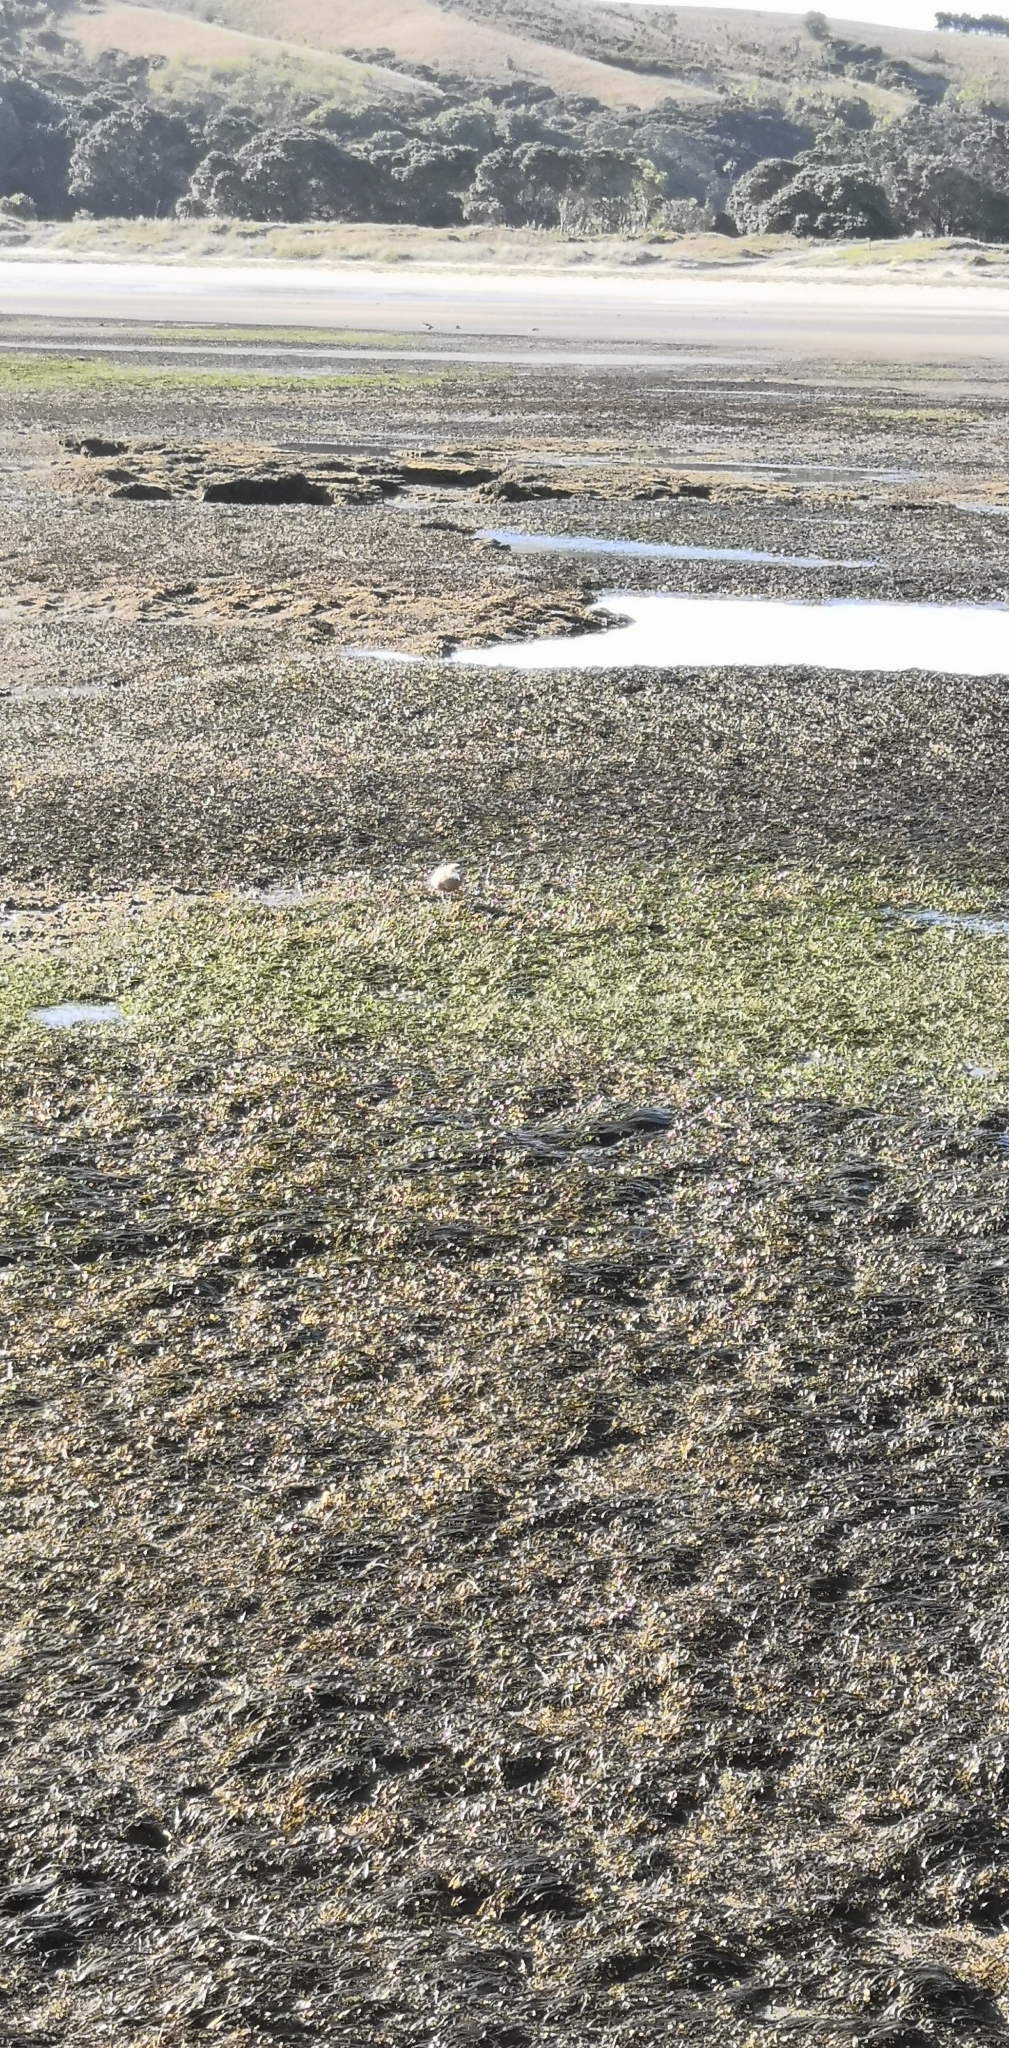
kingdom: Animalia
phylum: Chordata
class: Aves
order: Charadriiformes
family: Charadriidae
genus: Anarhynchus
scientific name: Anarhynchus
